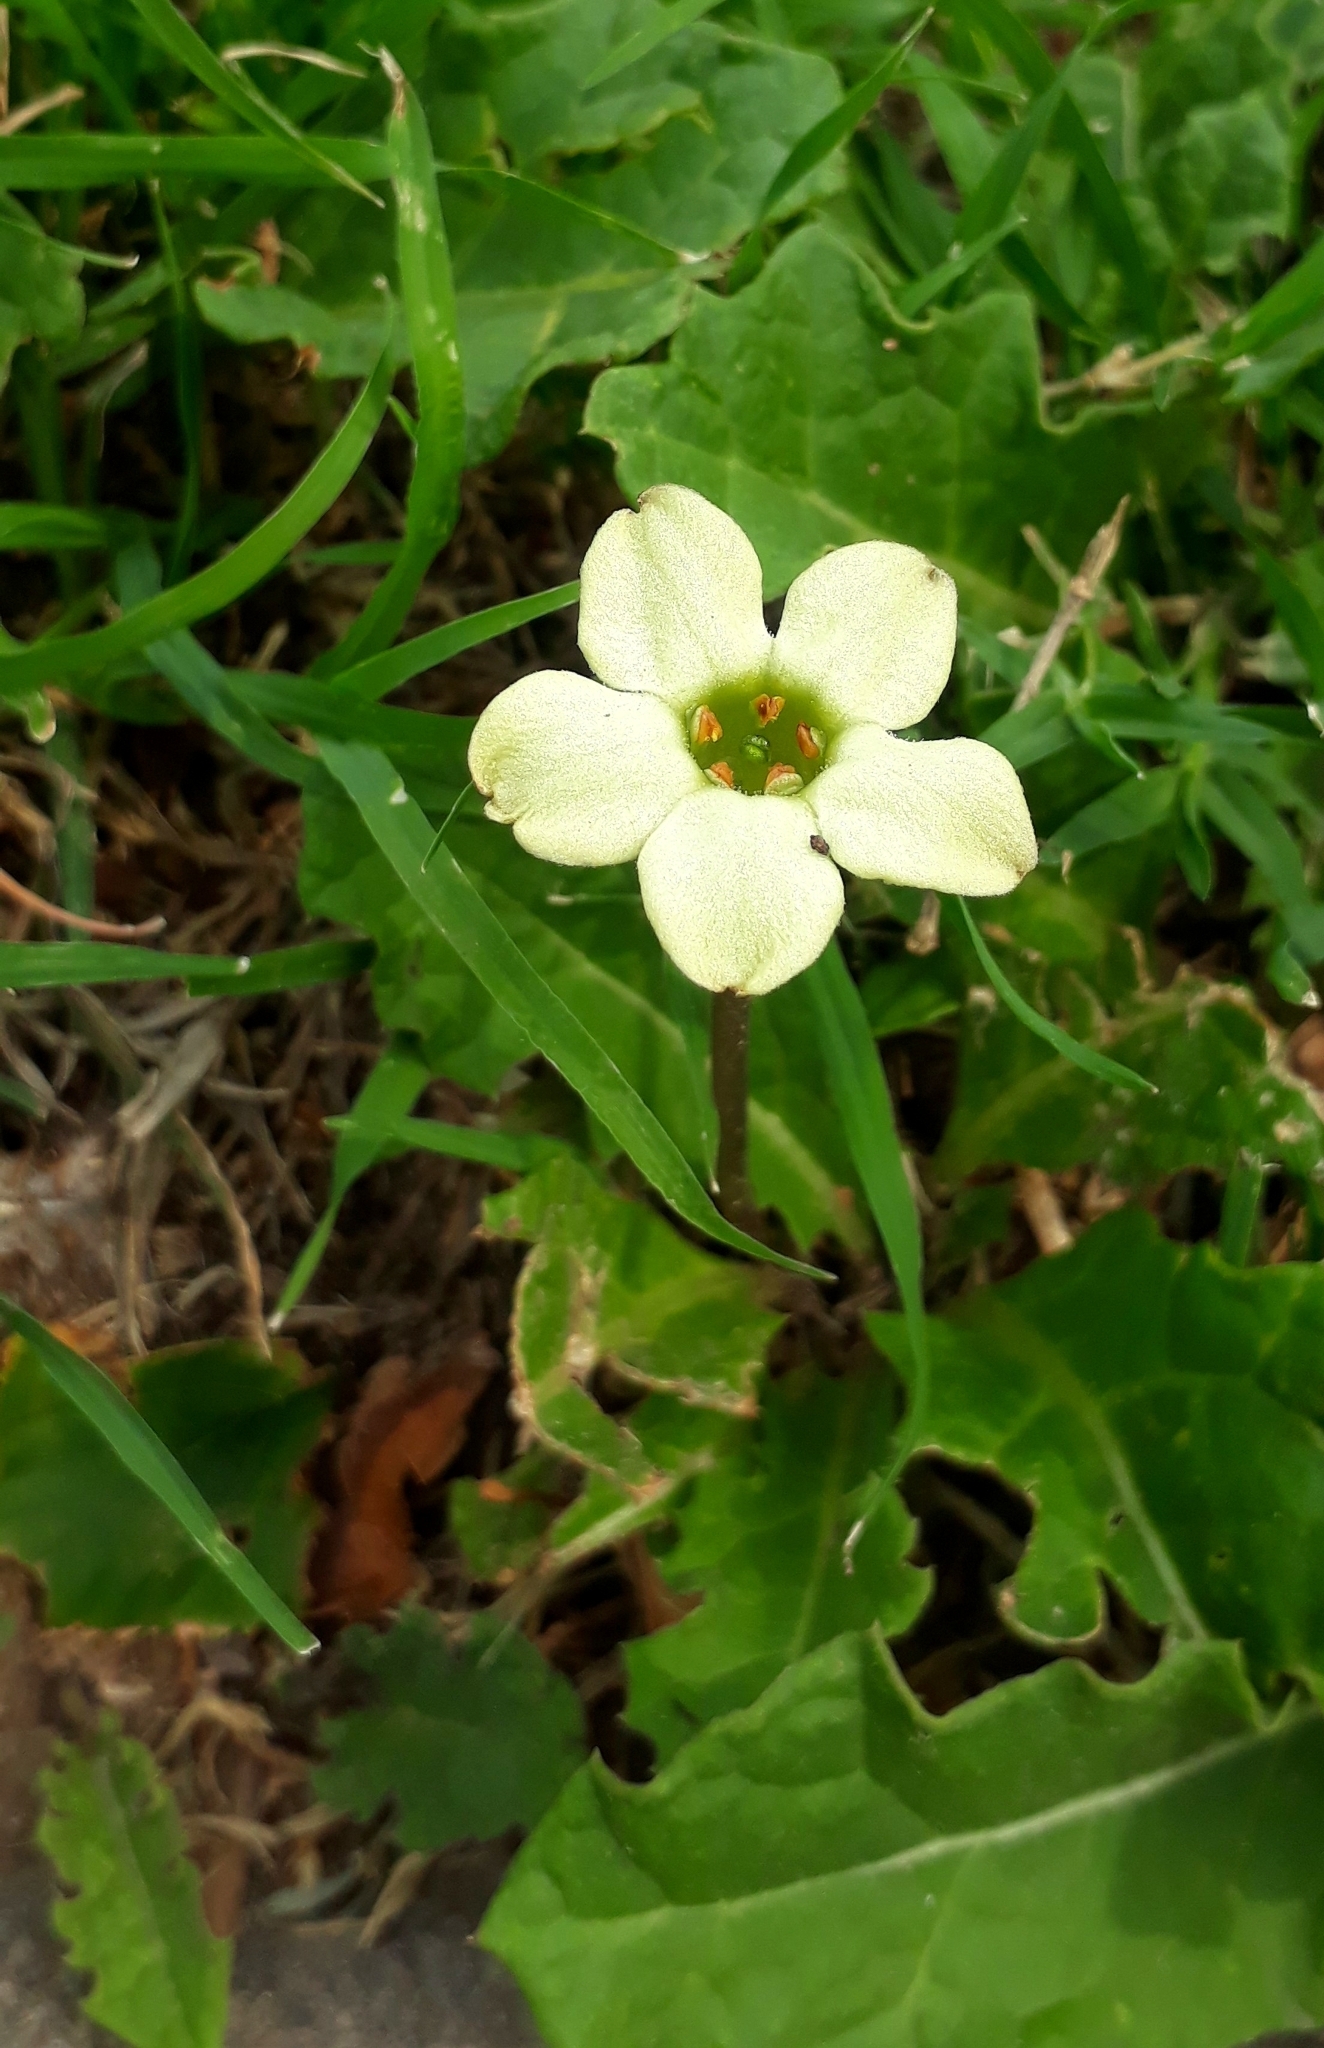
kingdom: Plantae
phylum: Tracheophyta
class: Magnoliopsida
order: Solanales
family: Solanaceae
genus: Jaborosa
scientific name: Jaborosa runcinata
